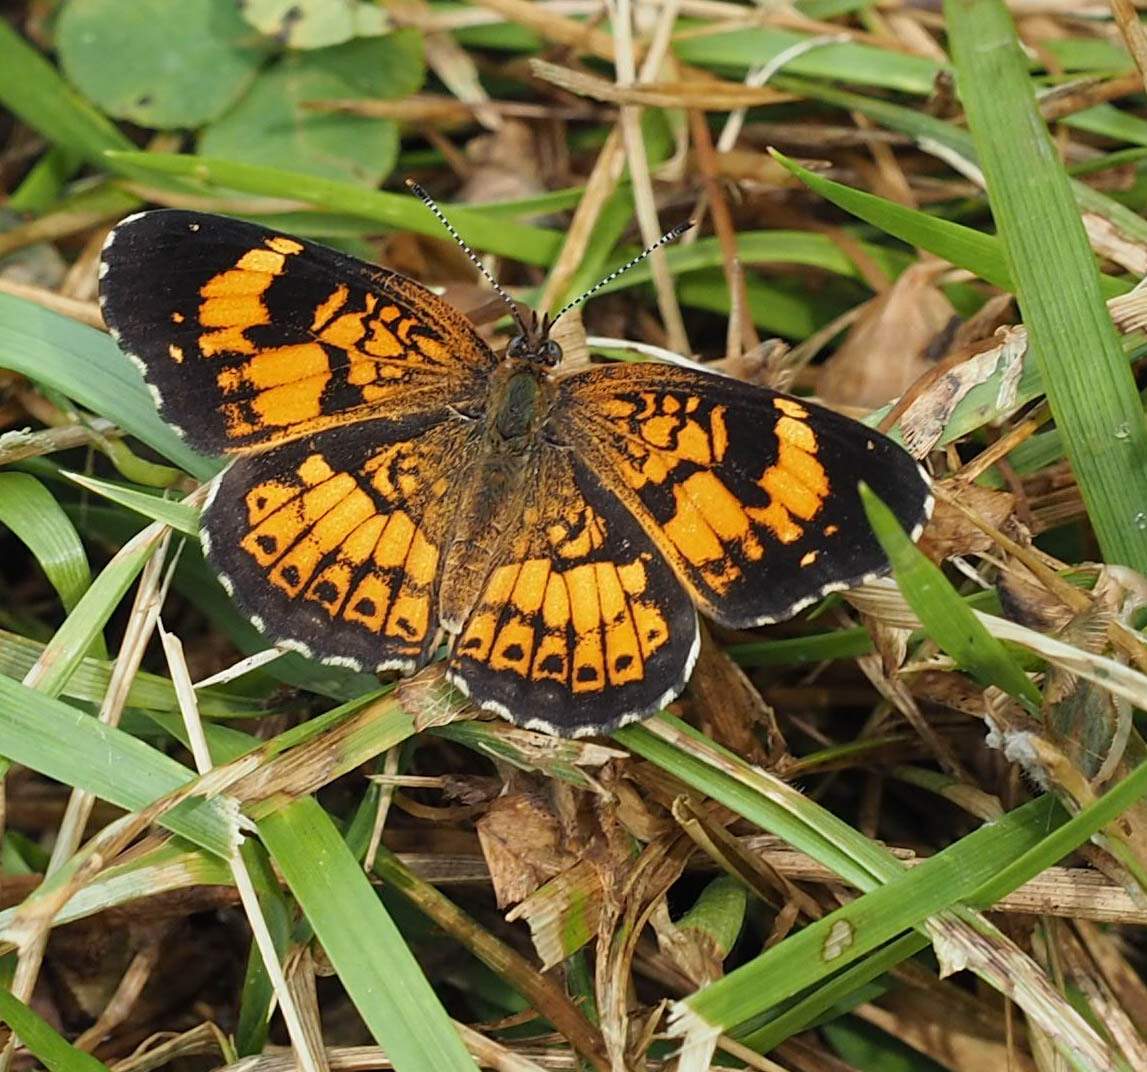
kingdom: Animalia
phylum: Arthropoda
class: Insecta
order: Lepidoptera
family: Nymphalidae
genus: Chlosyne
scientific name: Chlosyne nycteis
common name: Silvery checkerspot
